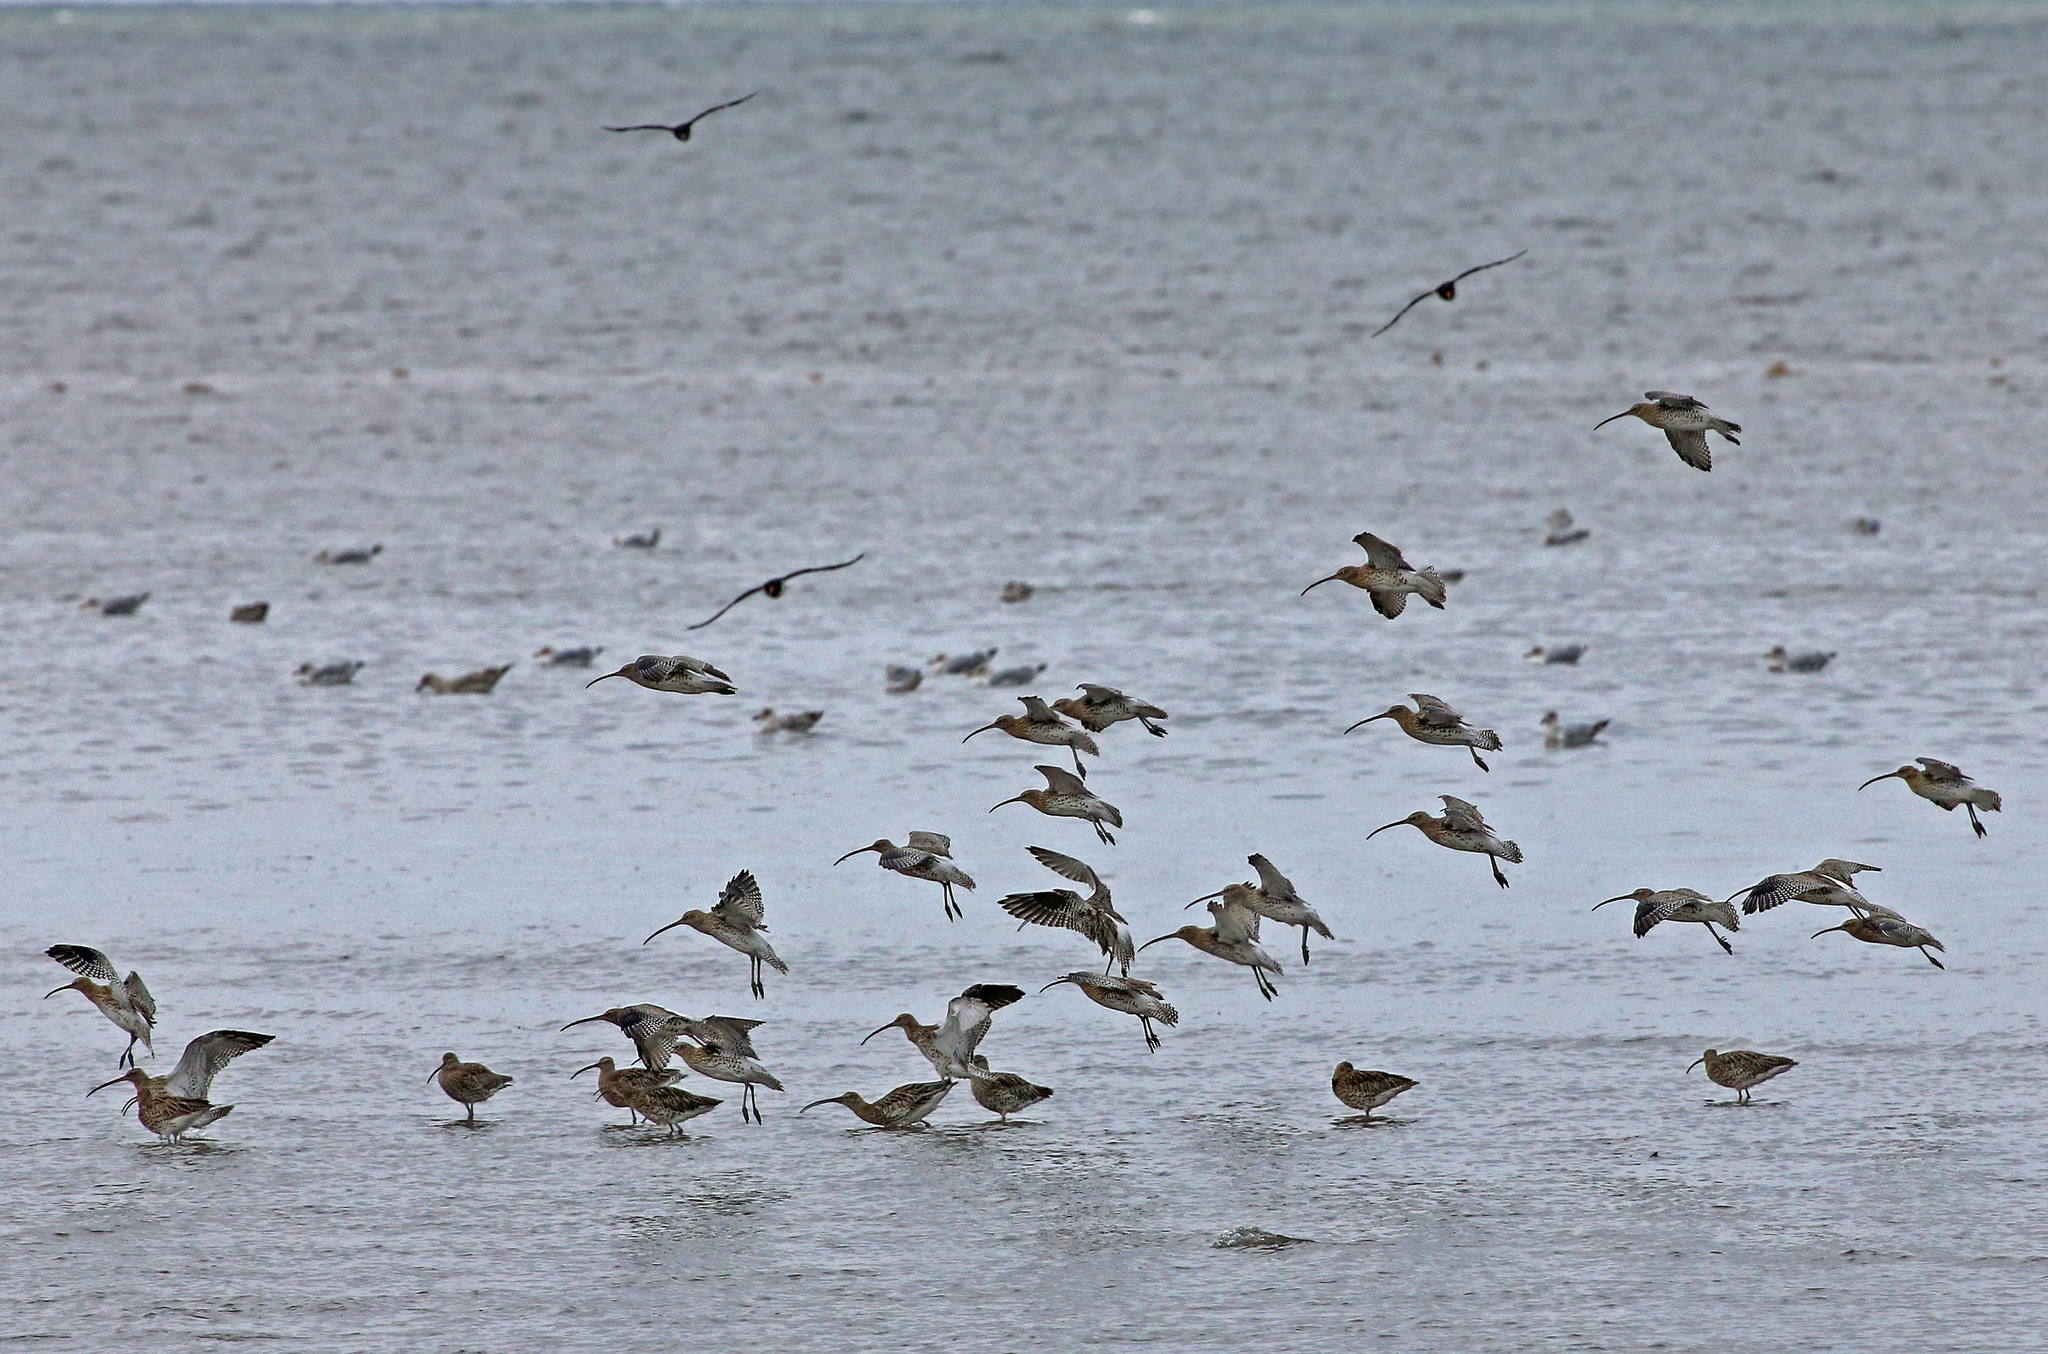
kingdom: Animalia
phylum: Chordata
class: Aves
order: Charadriiformes
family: Scolopacidae
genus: Numenius
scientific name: Numenius arquata
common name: Eurasian curlew
